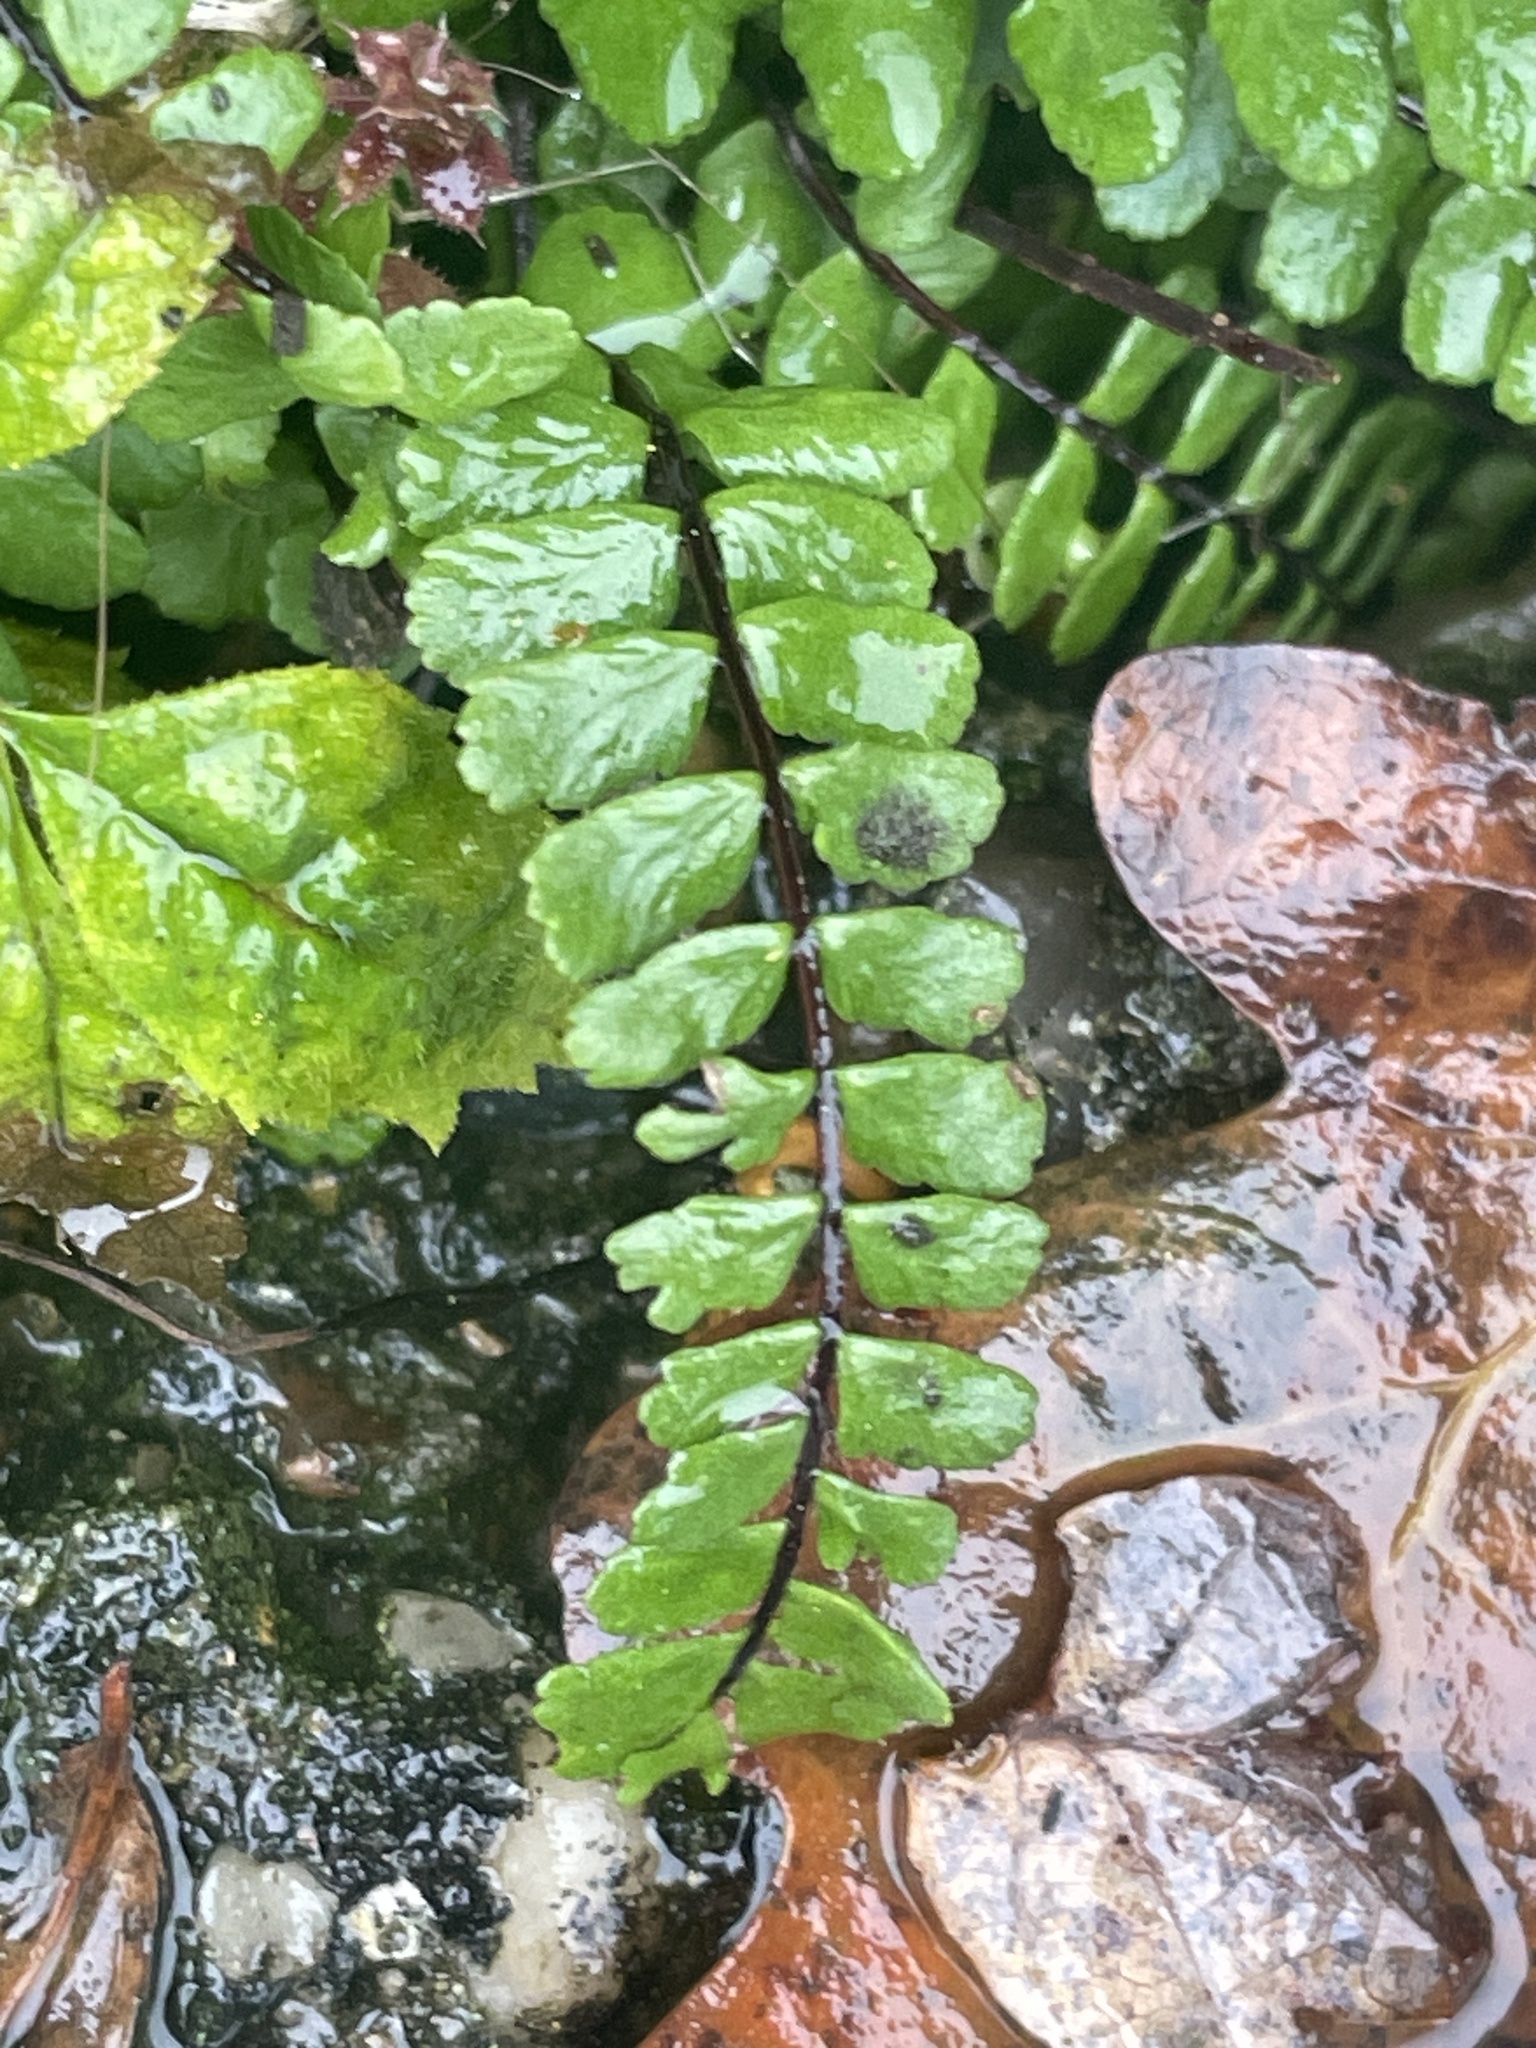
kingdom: Plantae
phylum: Tracheophyta
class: Polypodiopsida
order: Polypodiales
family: Aspleniaceae
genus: Asplenium
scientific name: Asplenium trichomanes
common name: Maidenhair spleenwort
